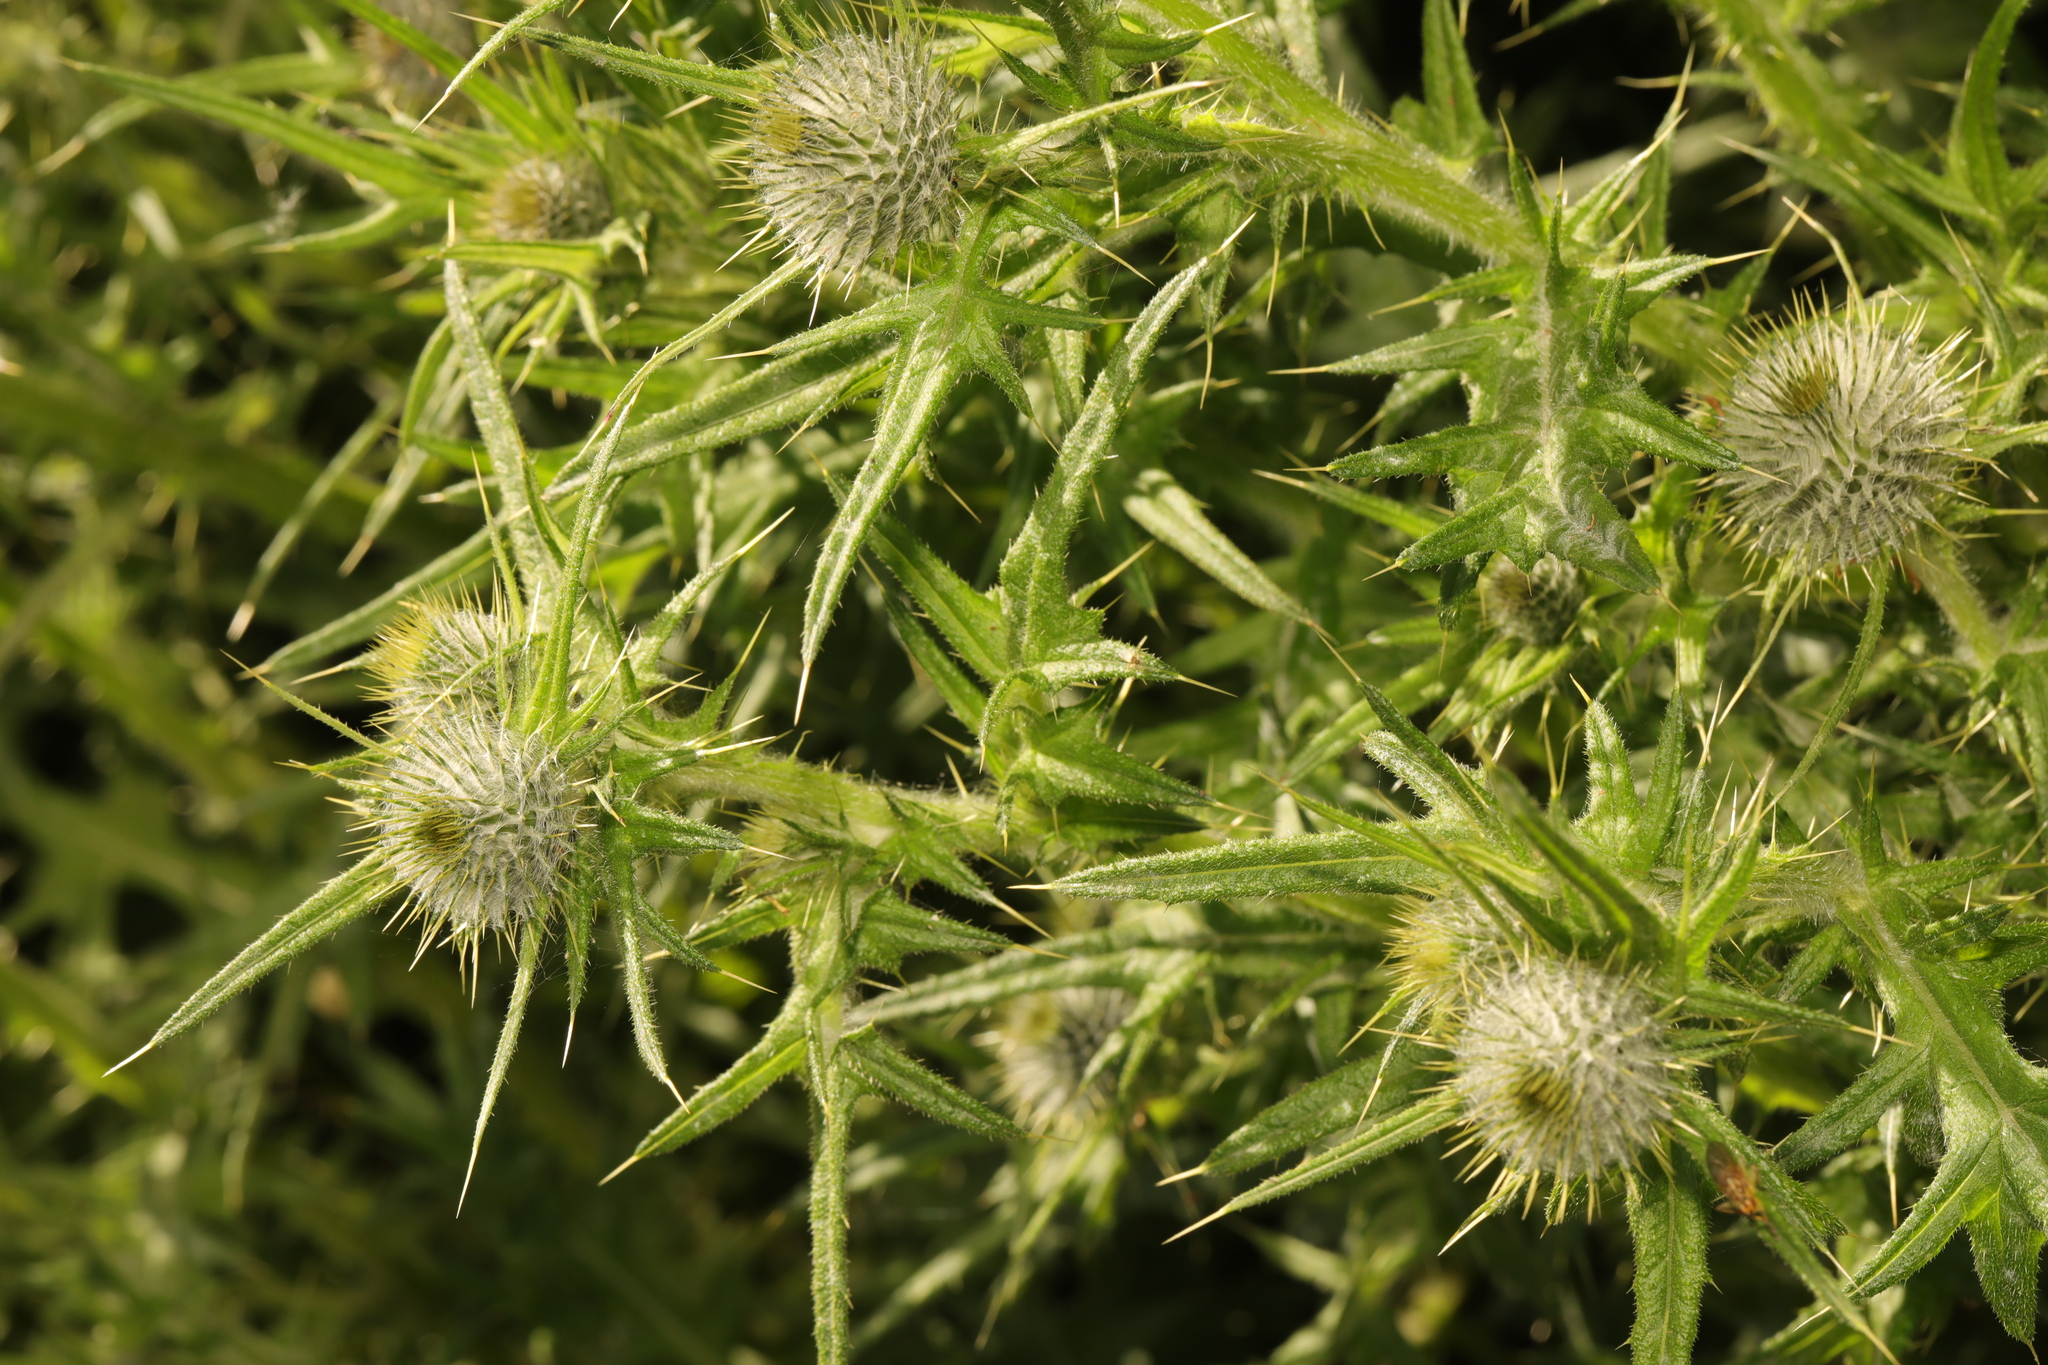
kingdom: Plantae
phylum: Tracheophyta
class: Magnoliopsida
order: Asterales
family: Asteraceae
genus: Cirsium
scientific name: Cirsium vulgare
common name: Bull thistle
